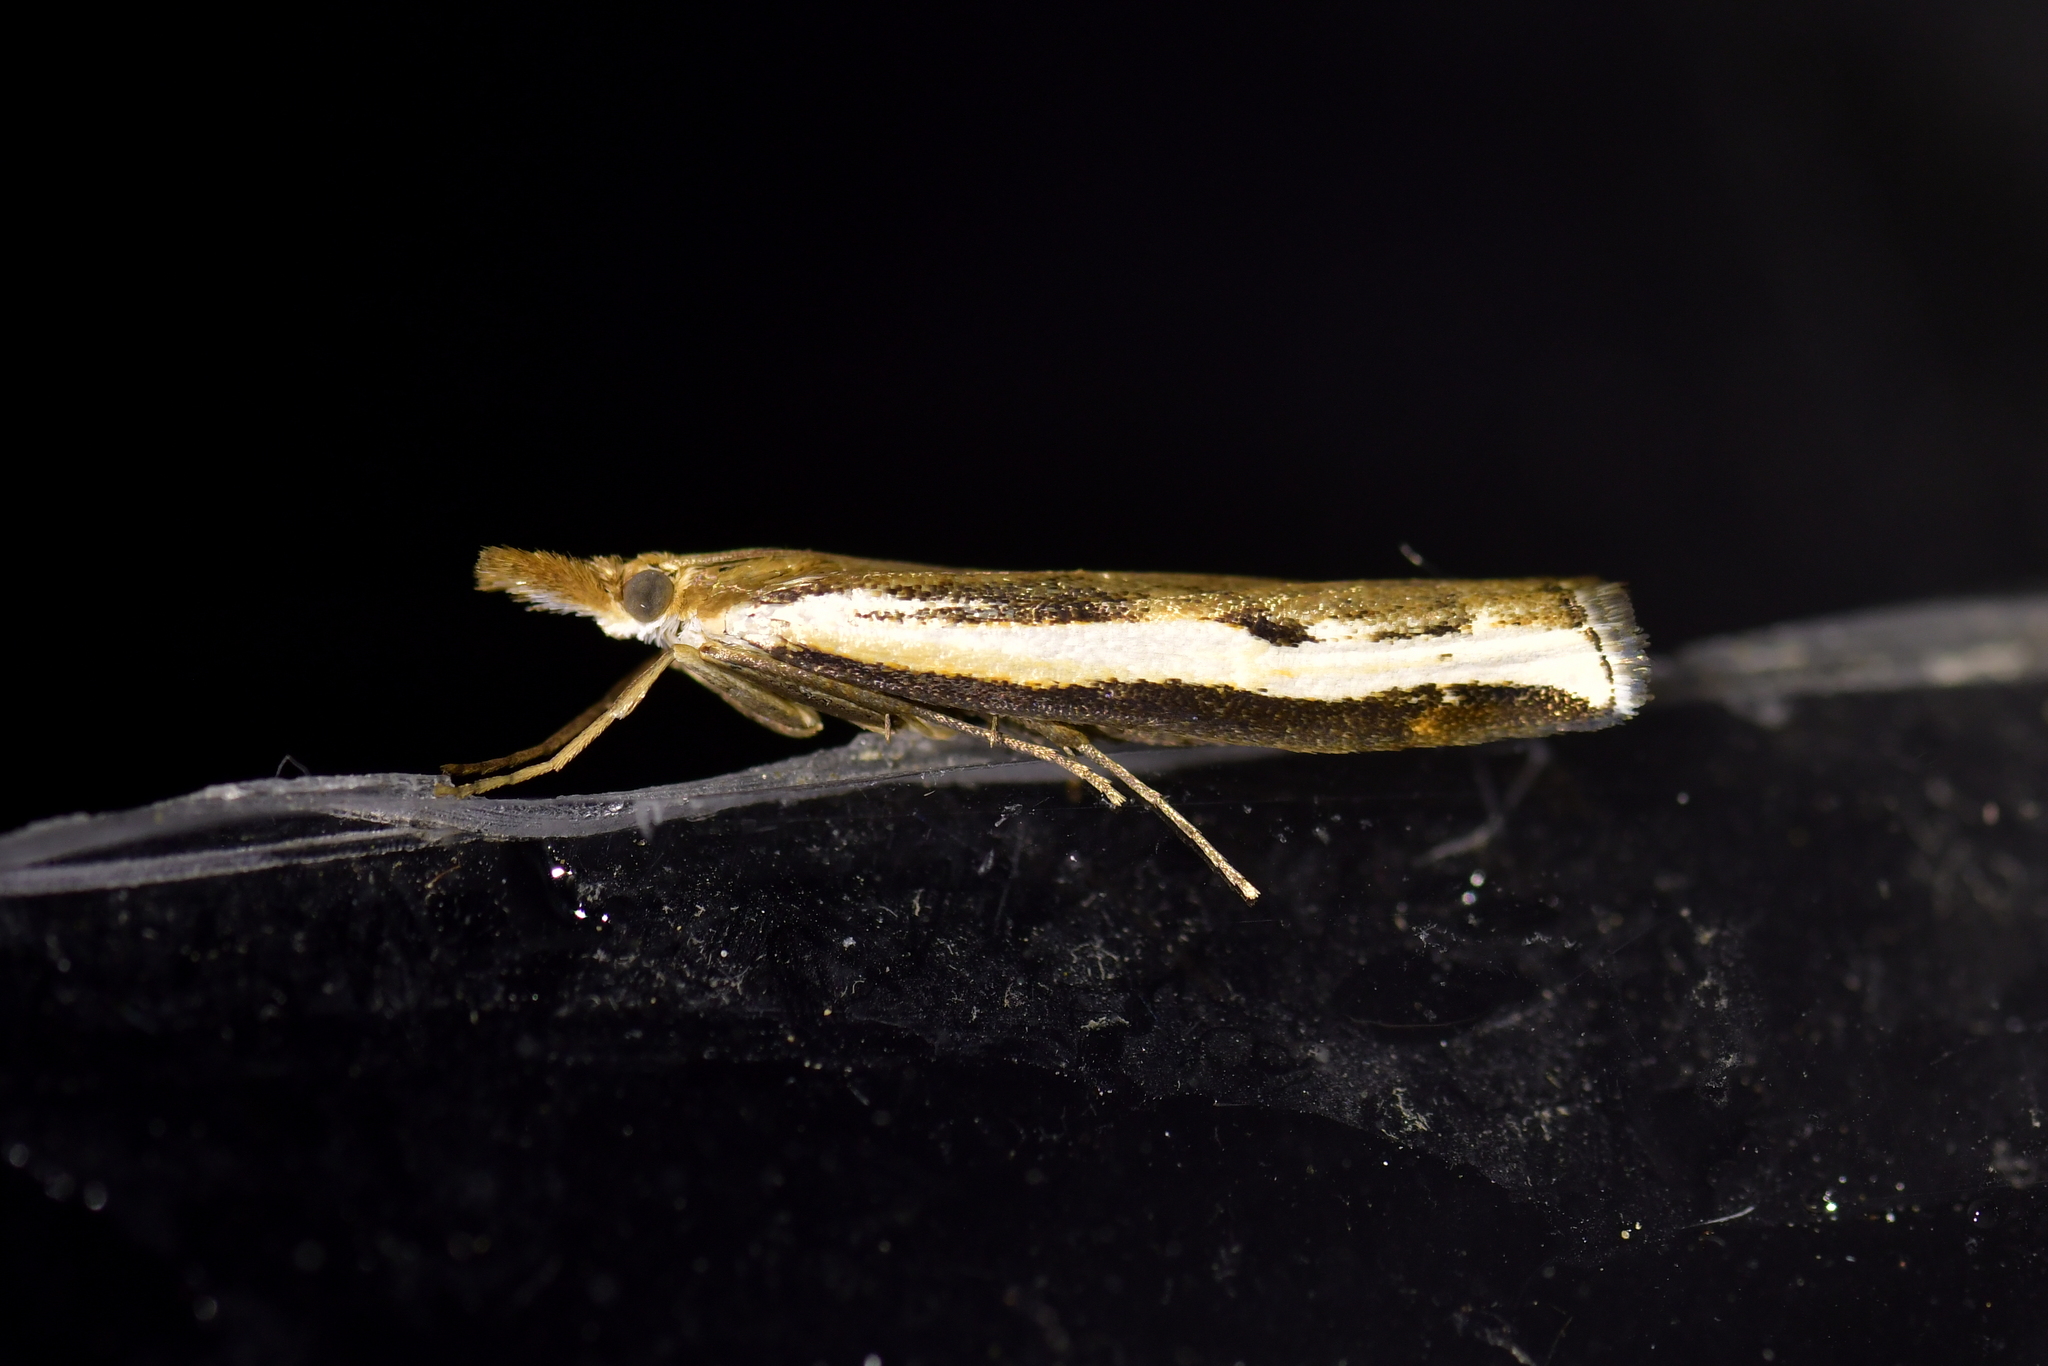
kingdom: Animalia
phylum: Arthropoda
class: Insecta
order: Lepidoptera
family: Crambidae
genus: Orocrambus
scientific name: Orocrambus flexuosellus
